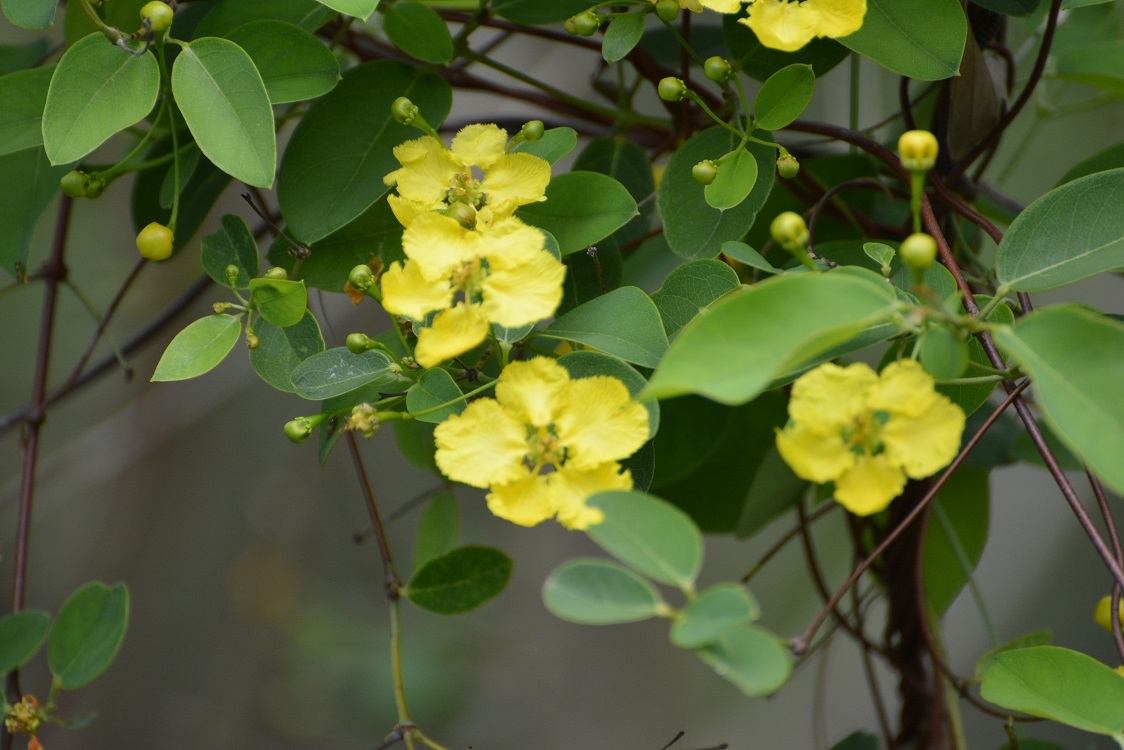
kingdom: Plantae
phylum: Tracheophyta
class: Magnoliopsida
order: Malpighiales
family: Malpighiaceae
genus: Stigmaphyllon
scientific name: Stigmaphyllon ellipticum
